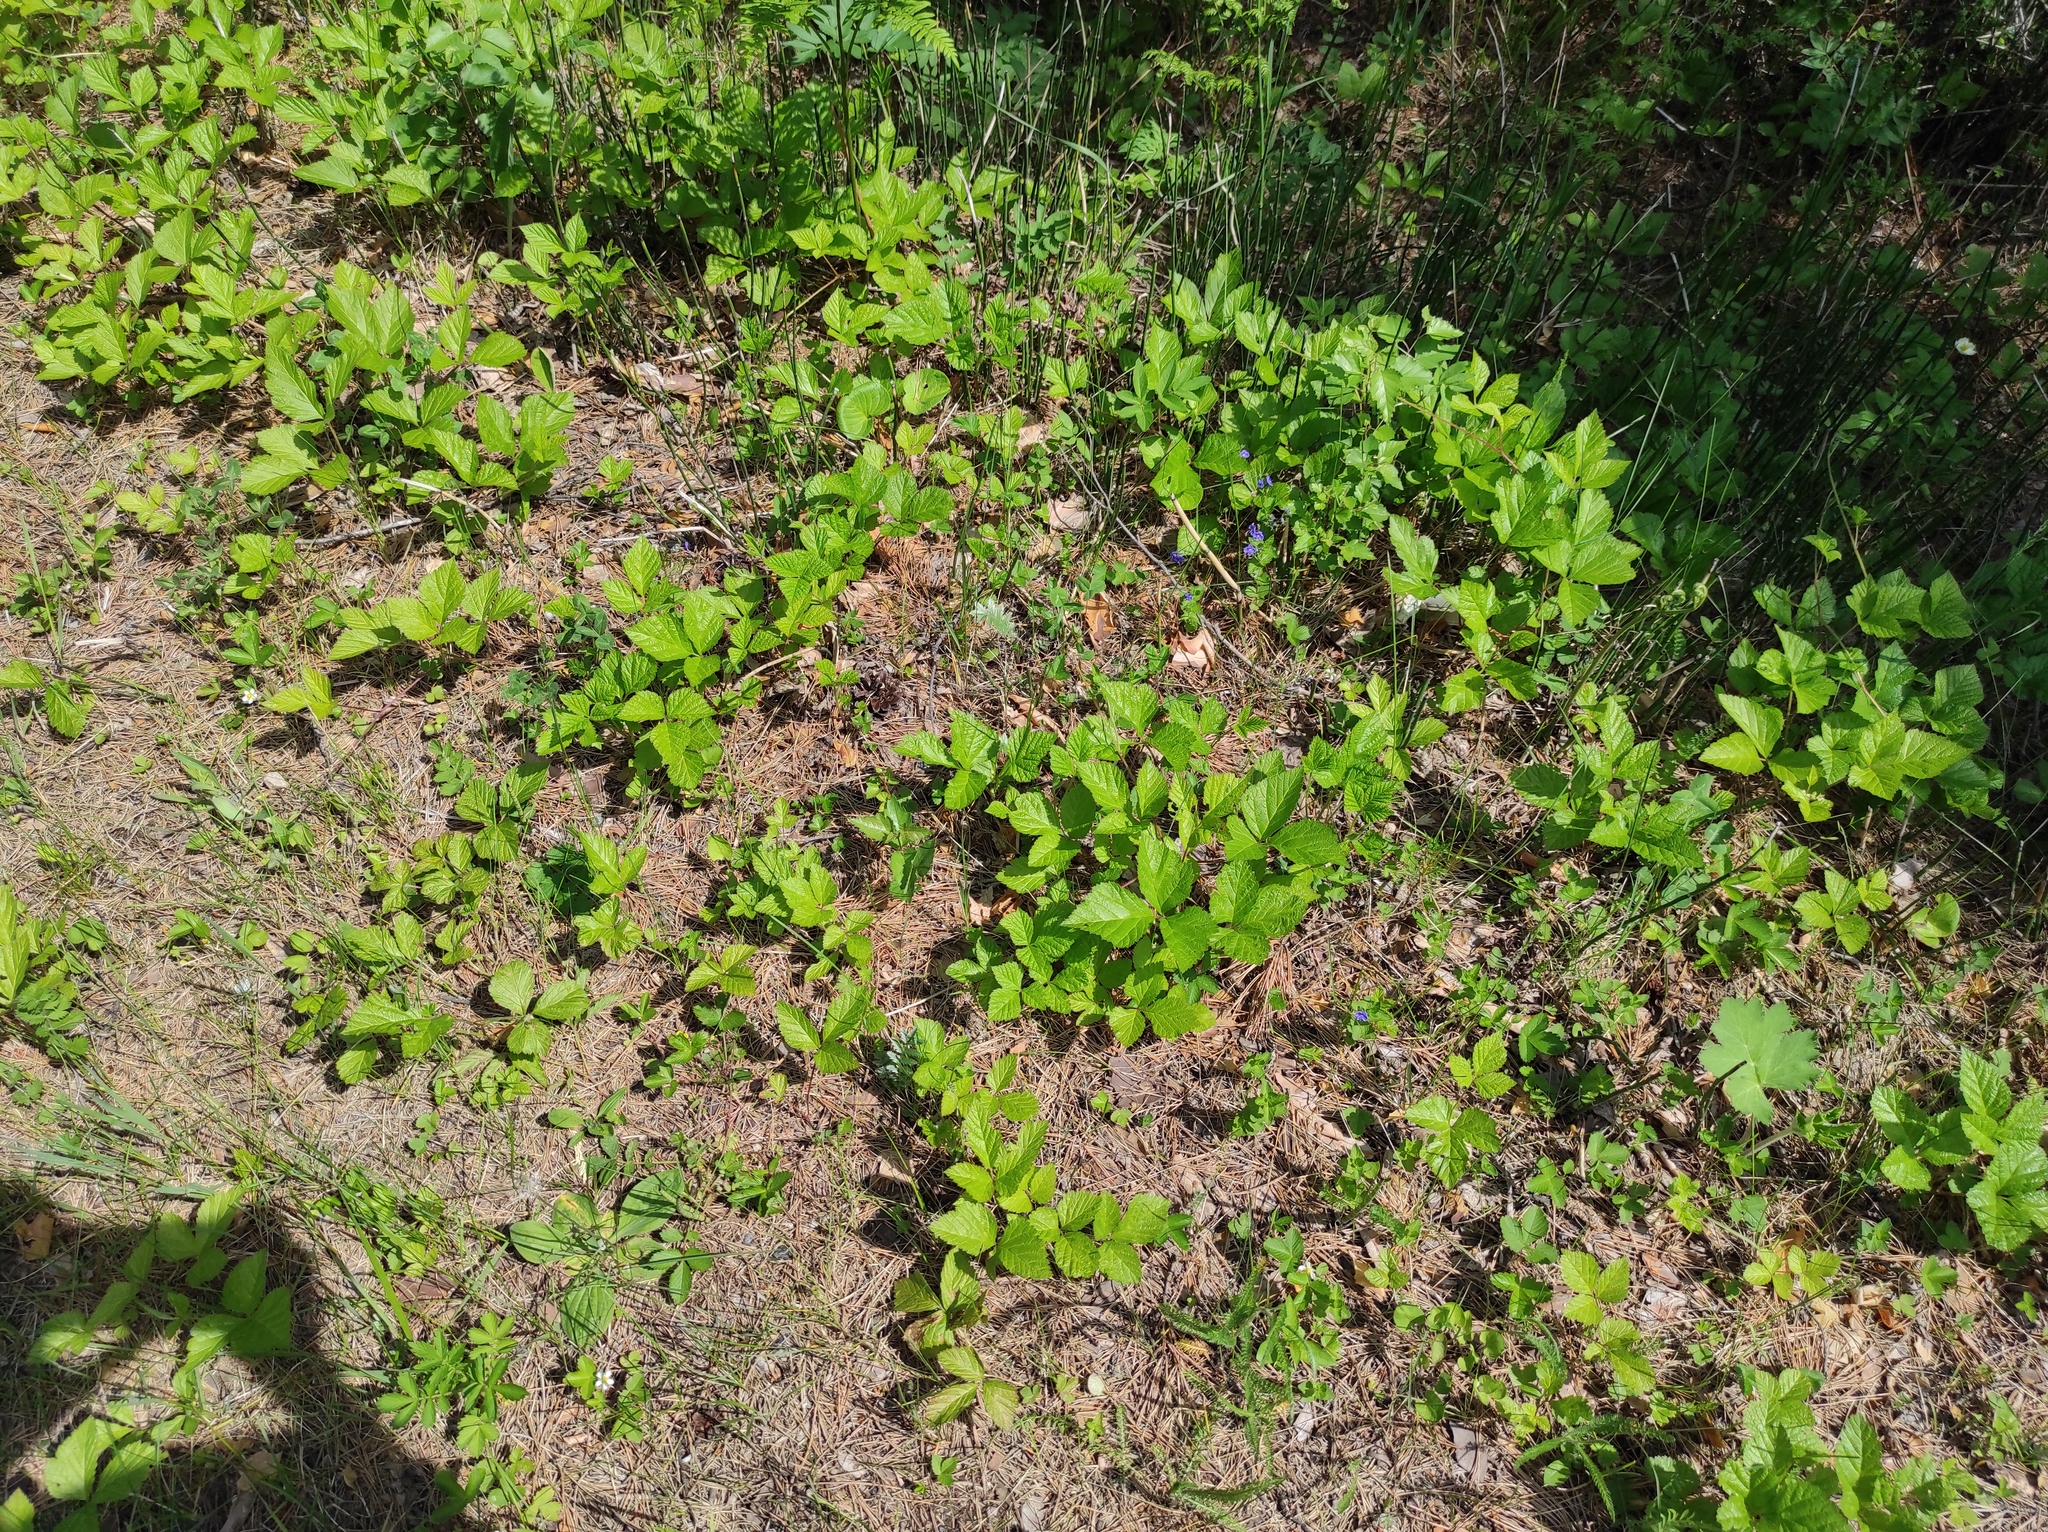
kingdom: Plantae
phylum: Tracheophyta
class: Magnoliopsida
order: Rosales
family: Rosaceae
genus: Rubus
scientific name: Rubus saxatilis
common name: Stone bramble
